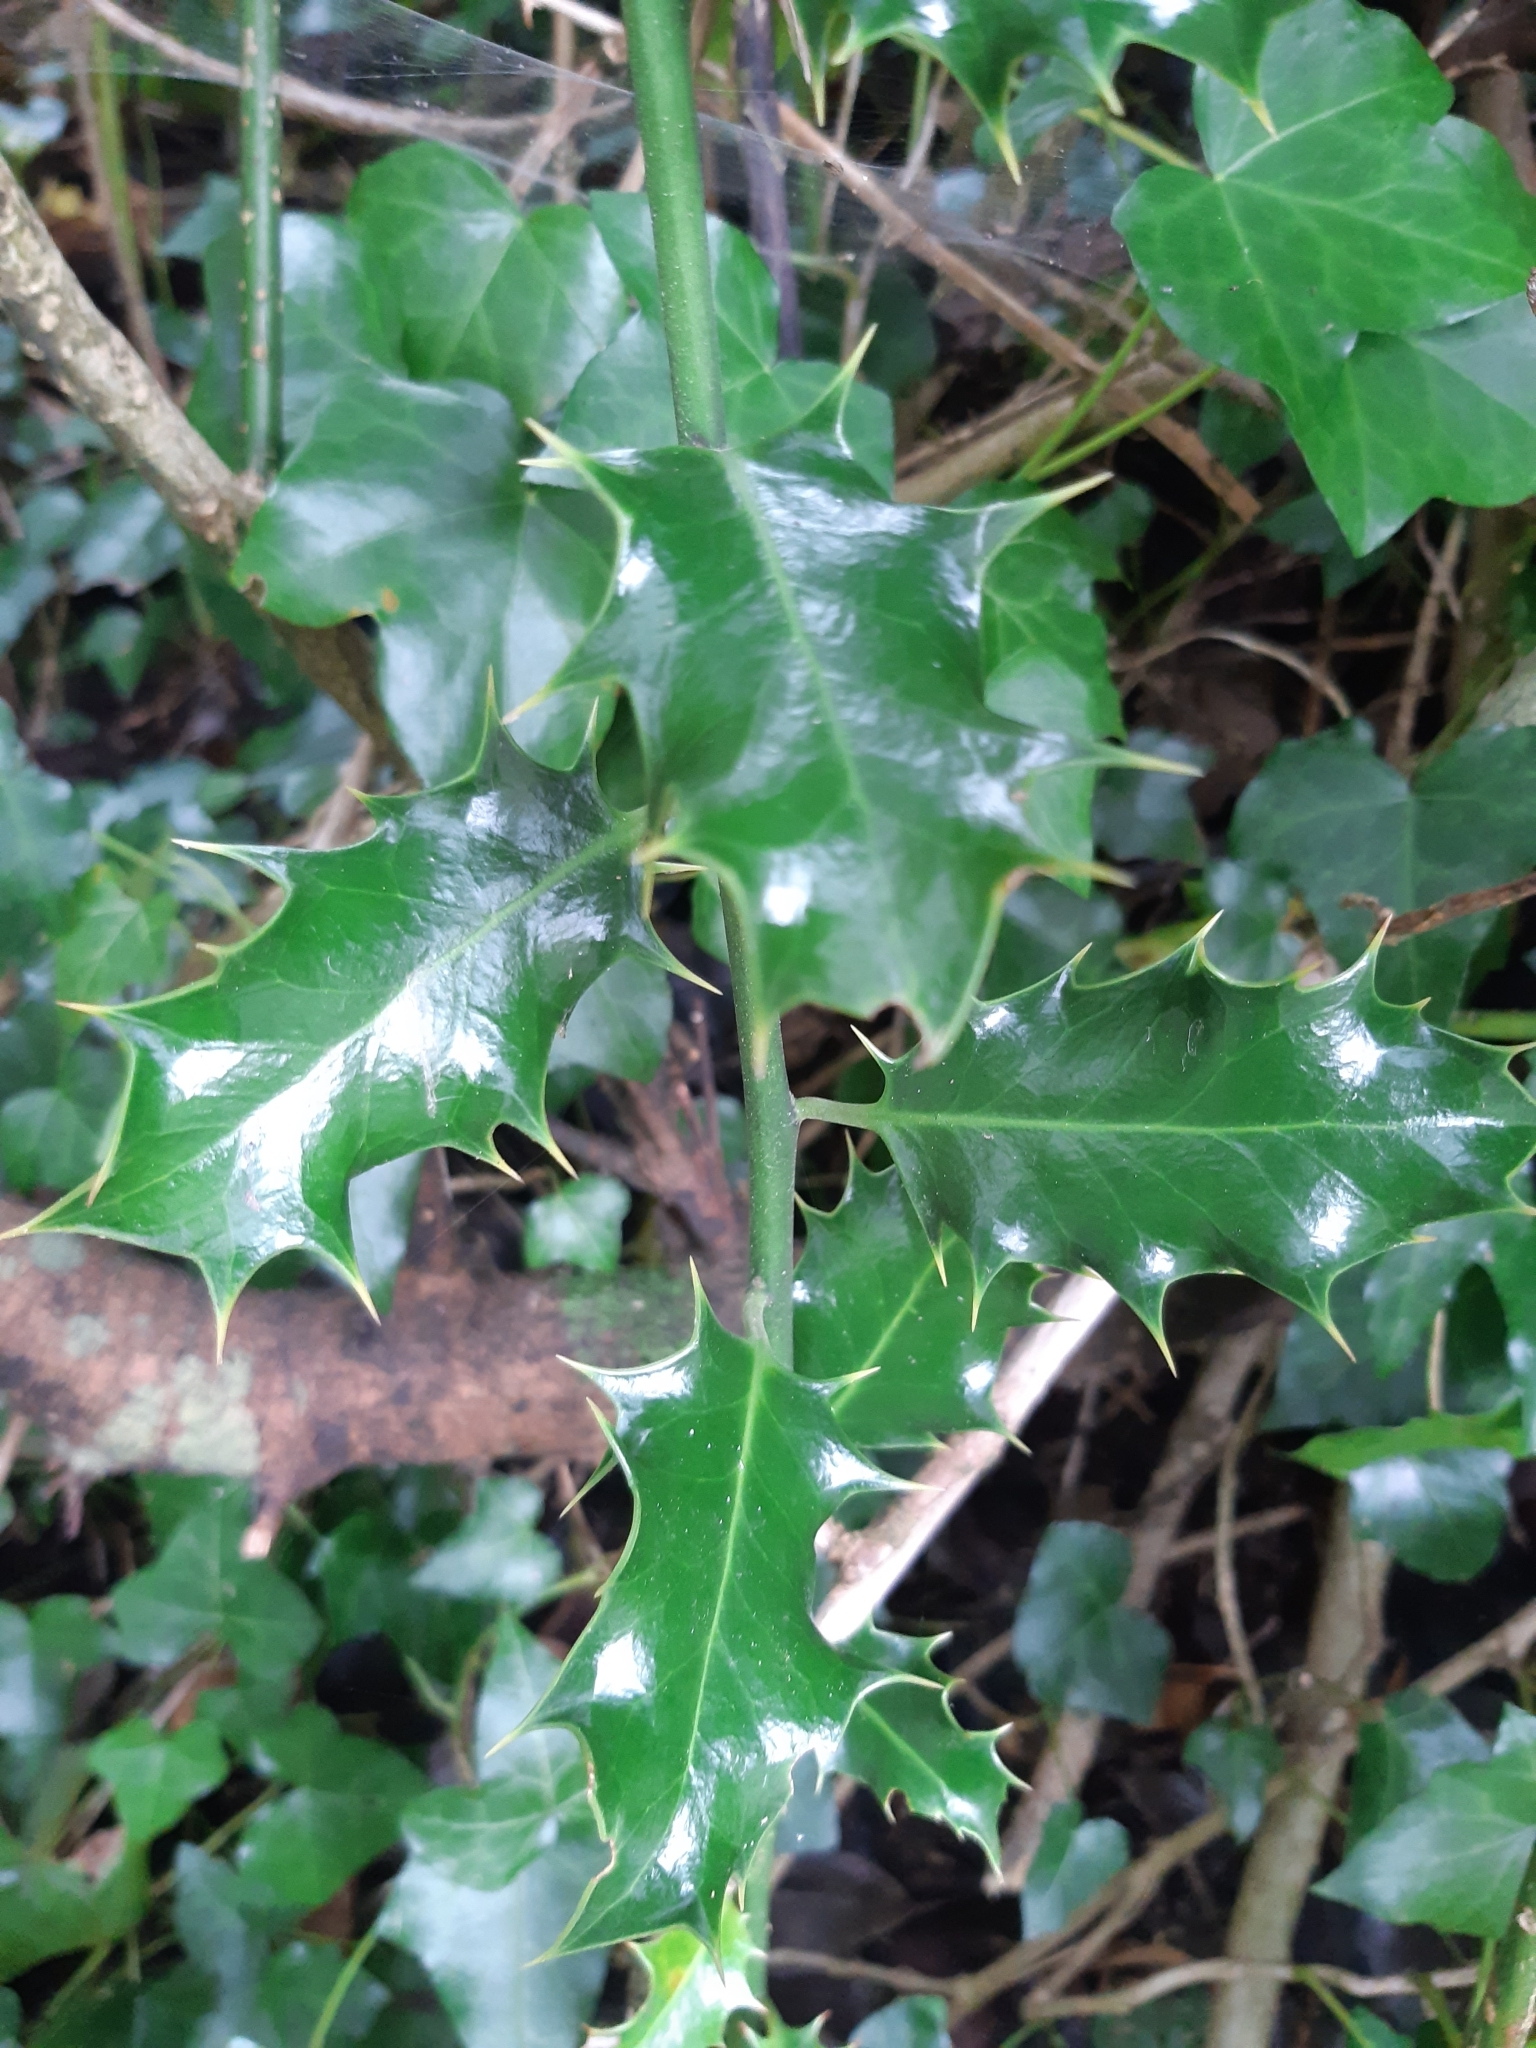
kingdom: Plantae
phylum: Tracheophyta
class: Magnoliopsida
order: Aquifoliales
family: Aquifoliaceae
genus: Ilex
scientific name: Ilex aquifolium
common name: English holly
